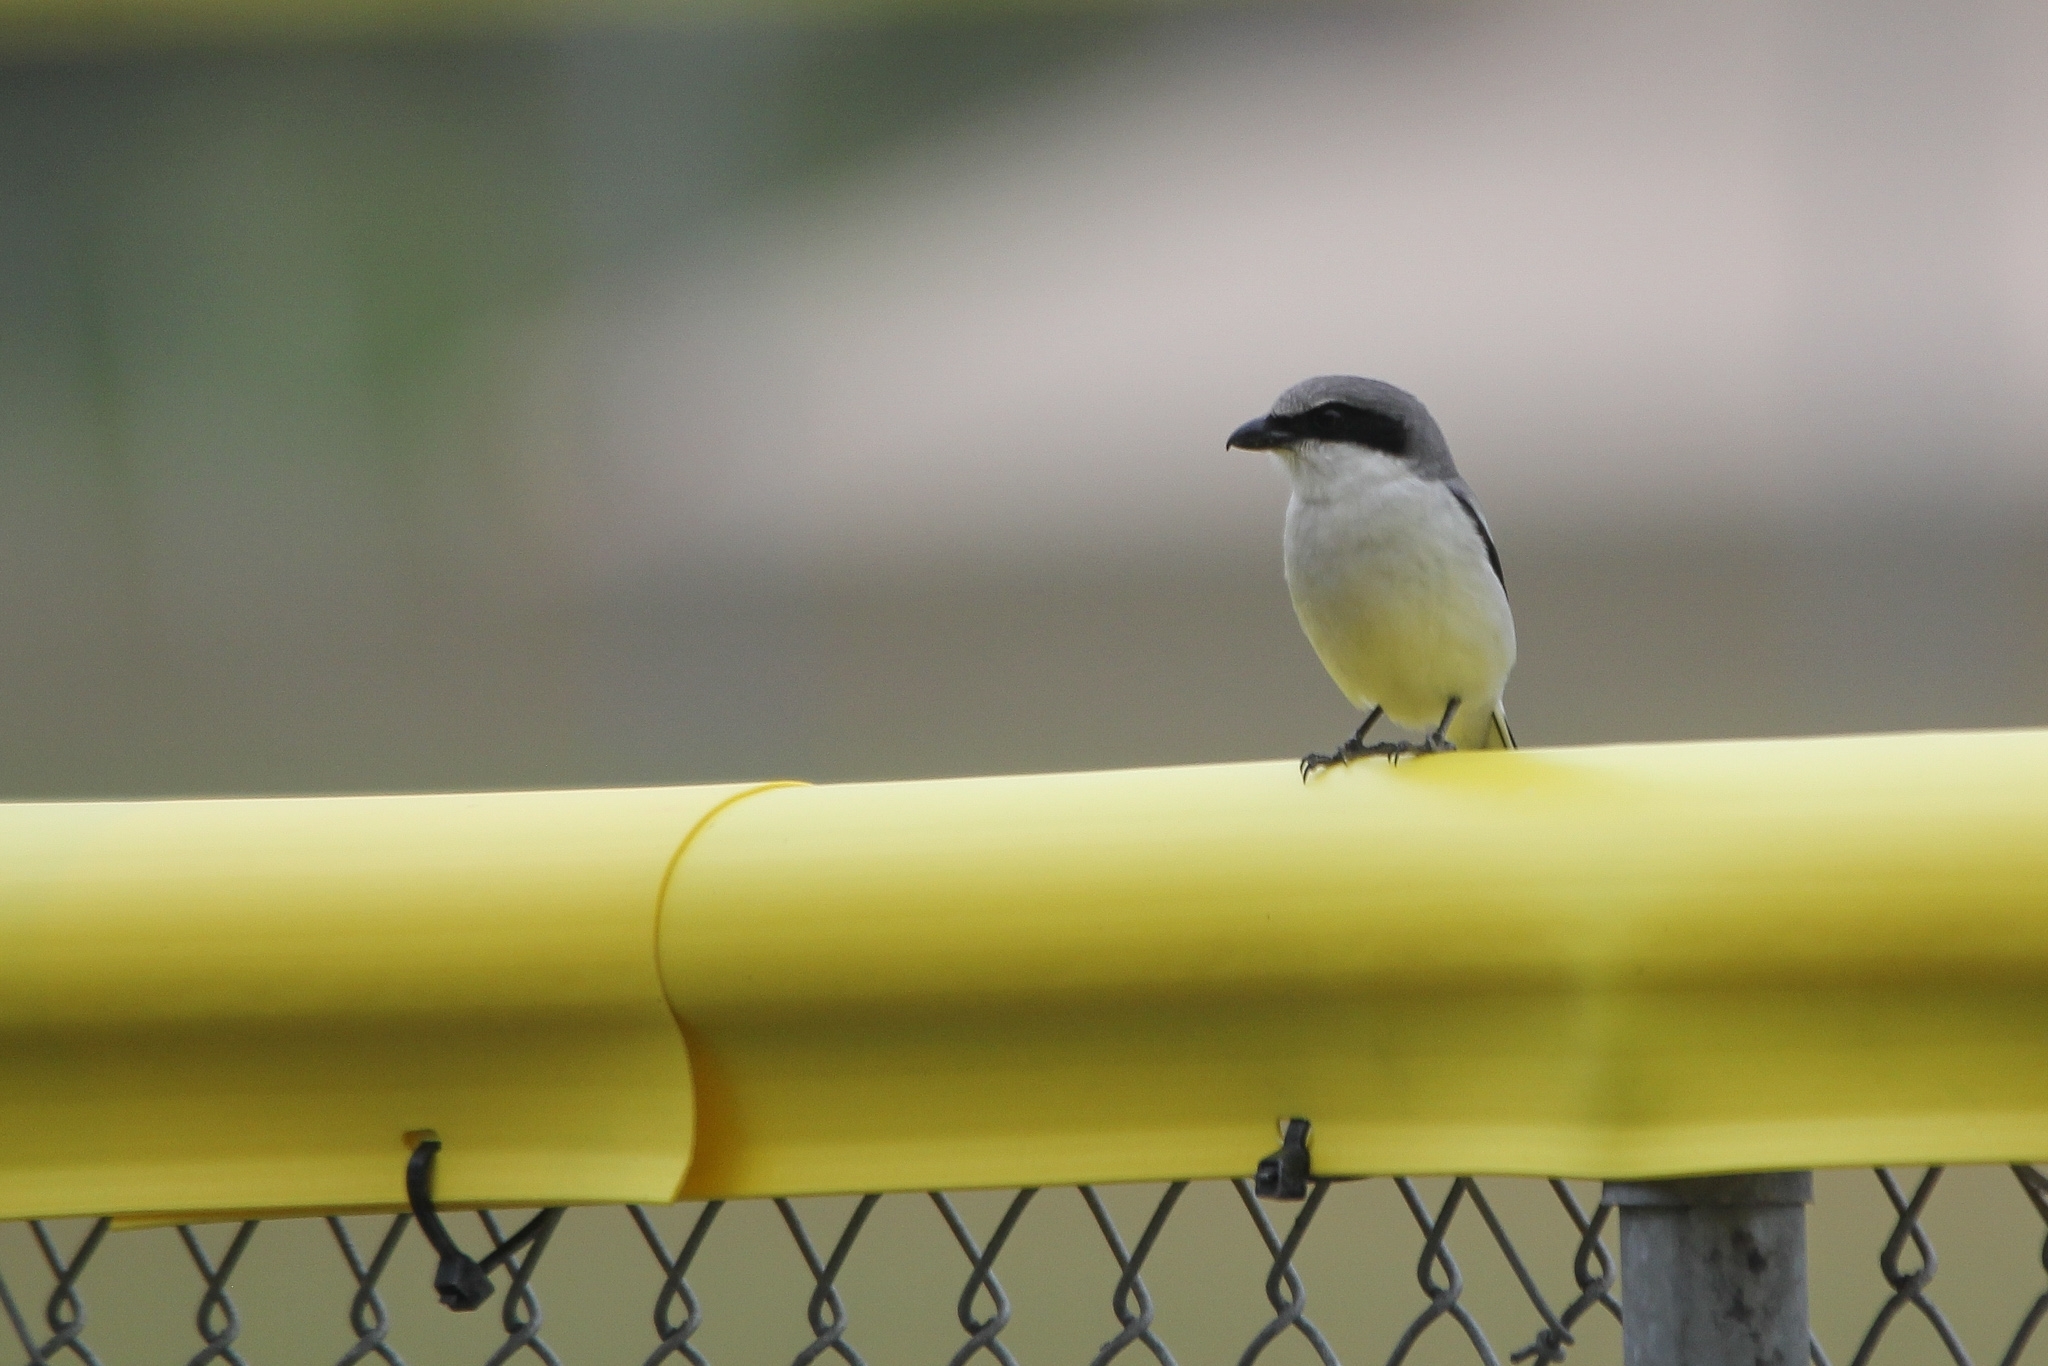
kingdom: Animalia
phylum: Chordata
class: Aves
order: Passeriformes
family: Laniidae
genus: Lanius
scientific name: Lanius ludovicianus
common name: Loggerhead shrike
